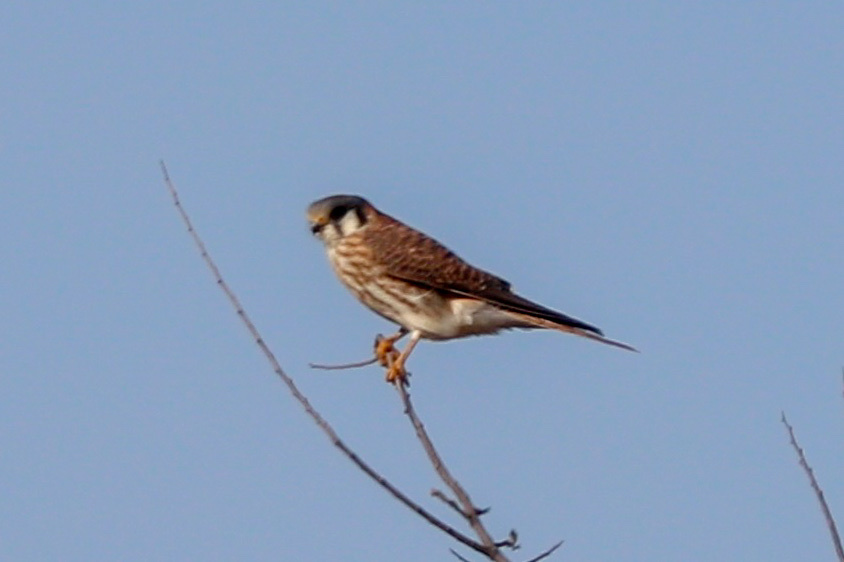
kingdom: Animalia
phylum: Chordata
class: Aves
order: Falconiformes
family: Falconidae
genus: Falco
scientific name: Falco sparverius
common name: American kestrel
